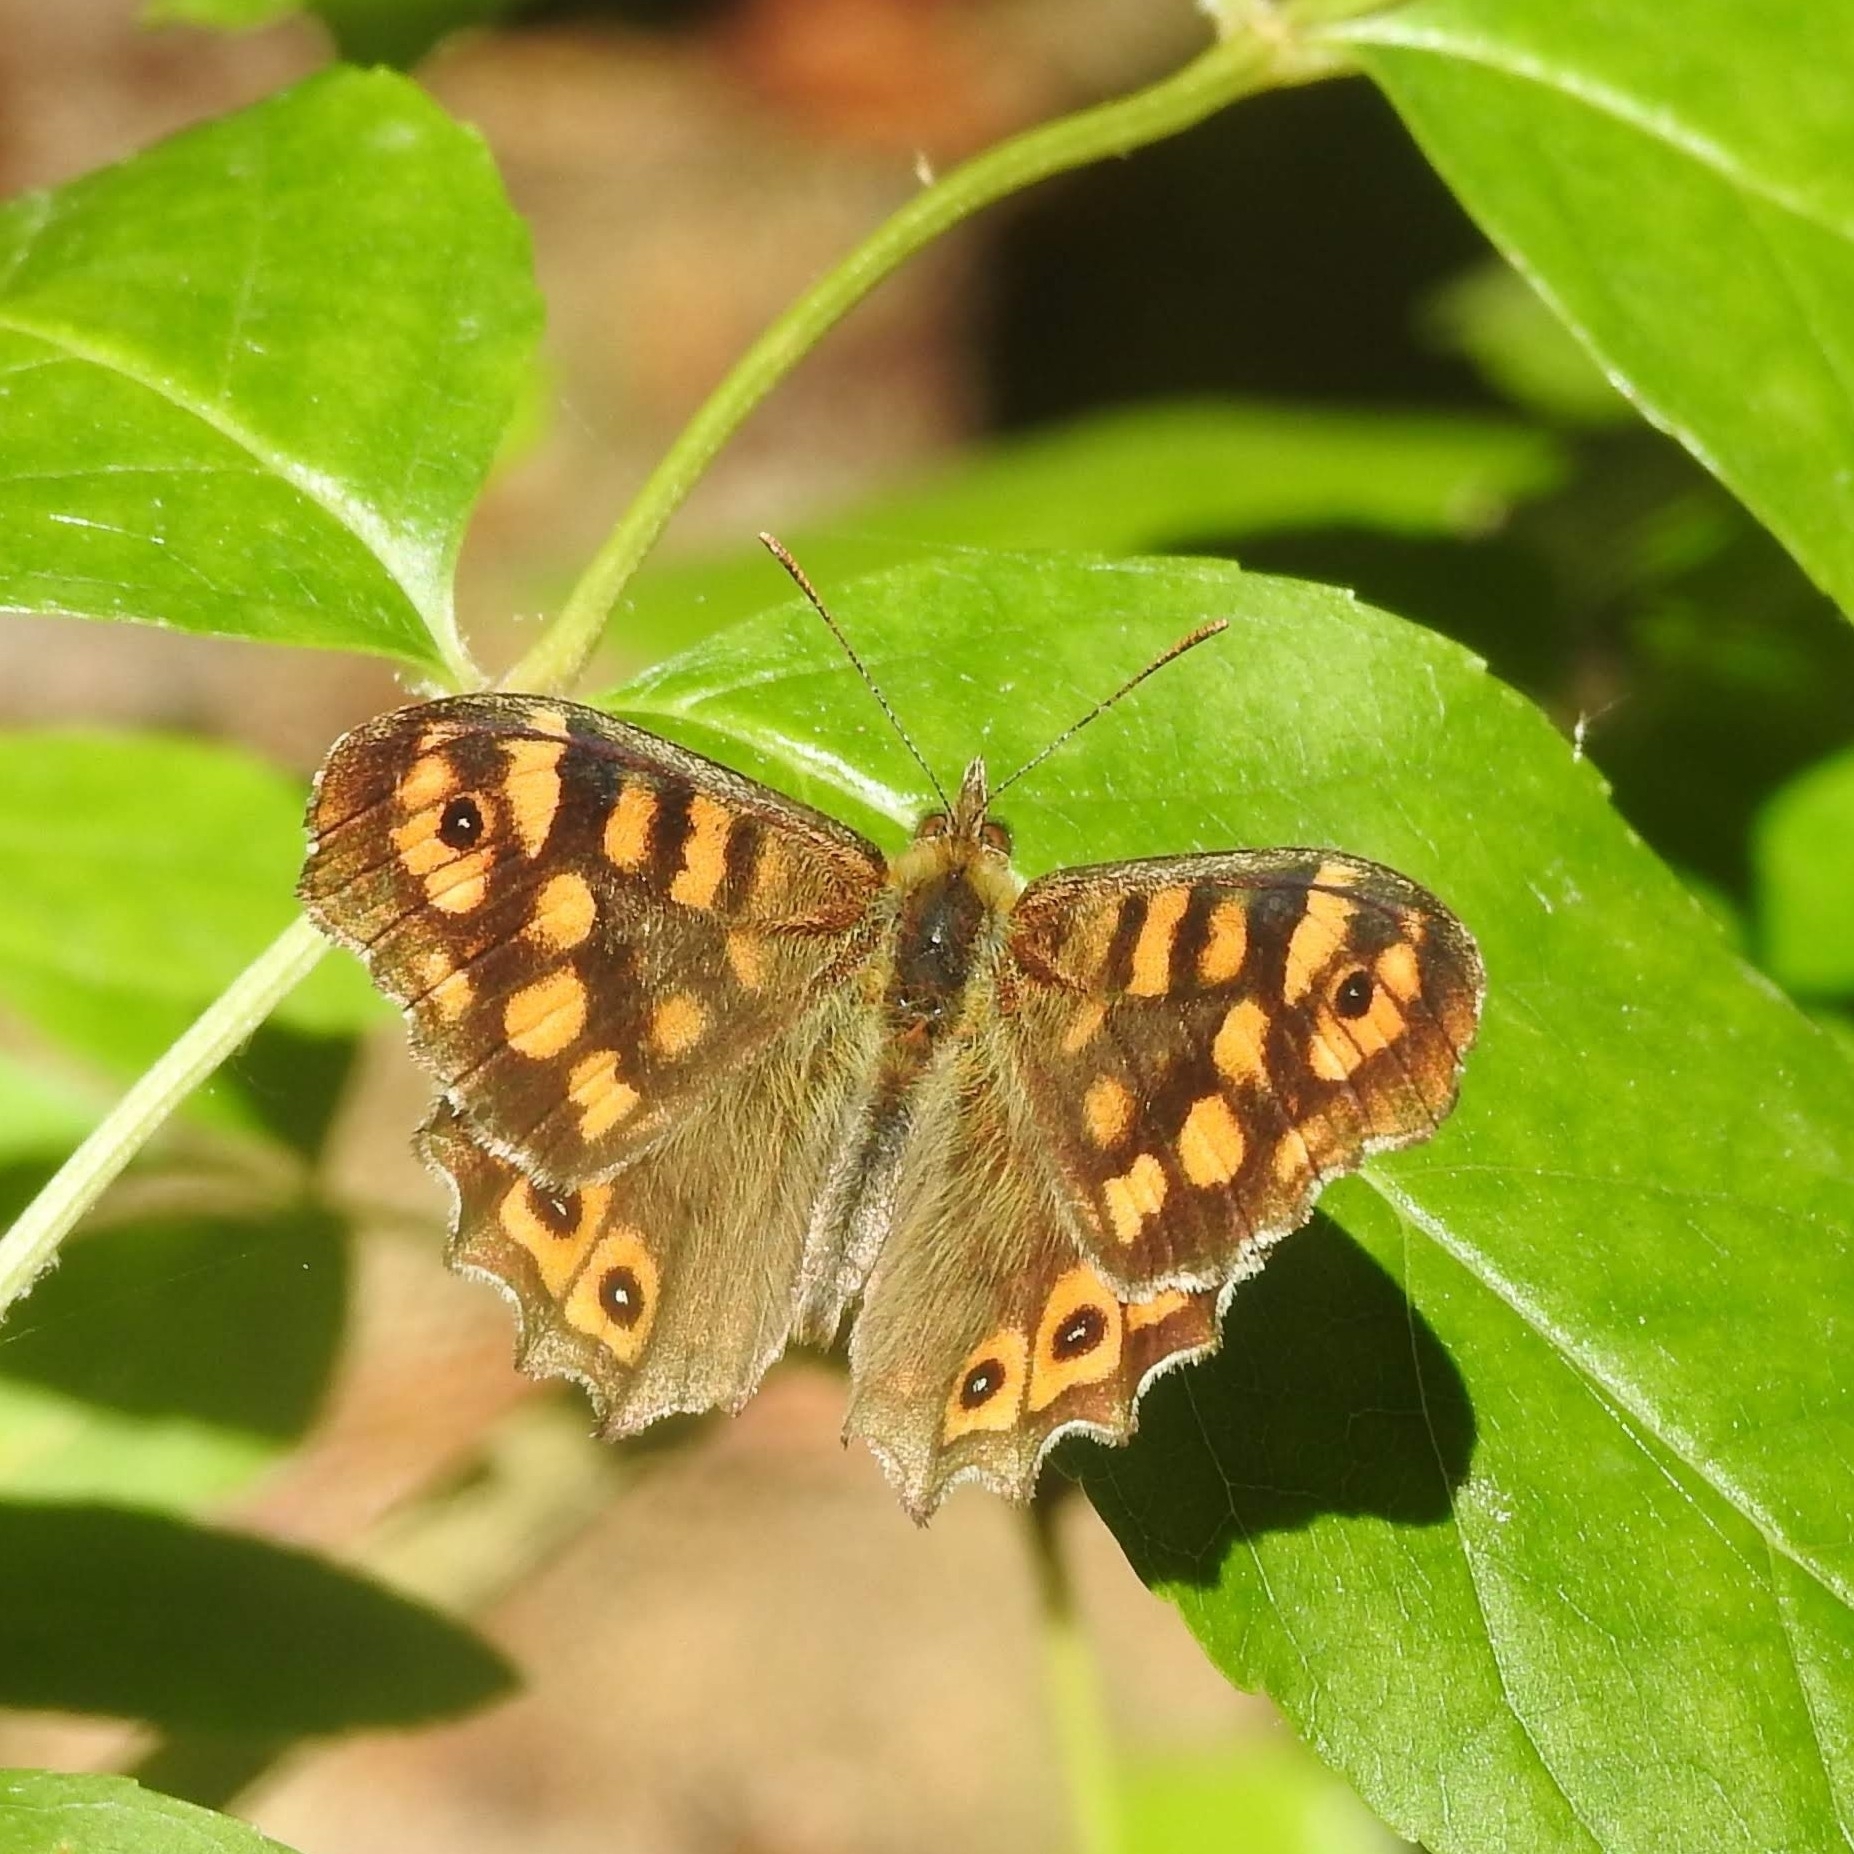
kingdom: Animalia
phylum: Arthropoda
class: Insecta
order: Lepidoptera
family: Nymphalidae
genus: Pararge
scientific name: Pararge aegeria
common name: Speckled wood
